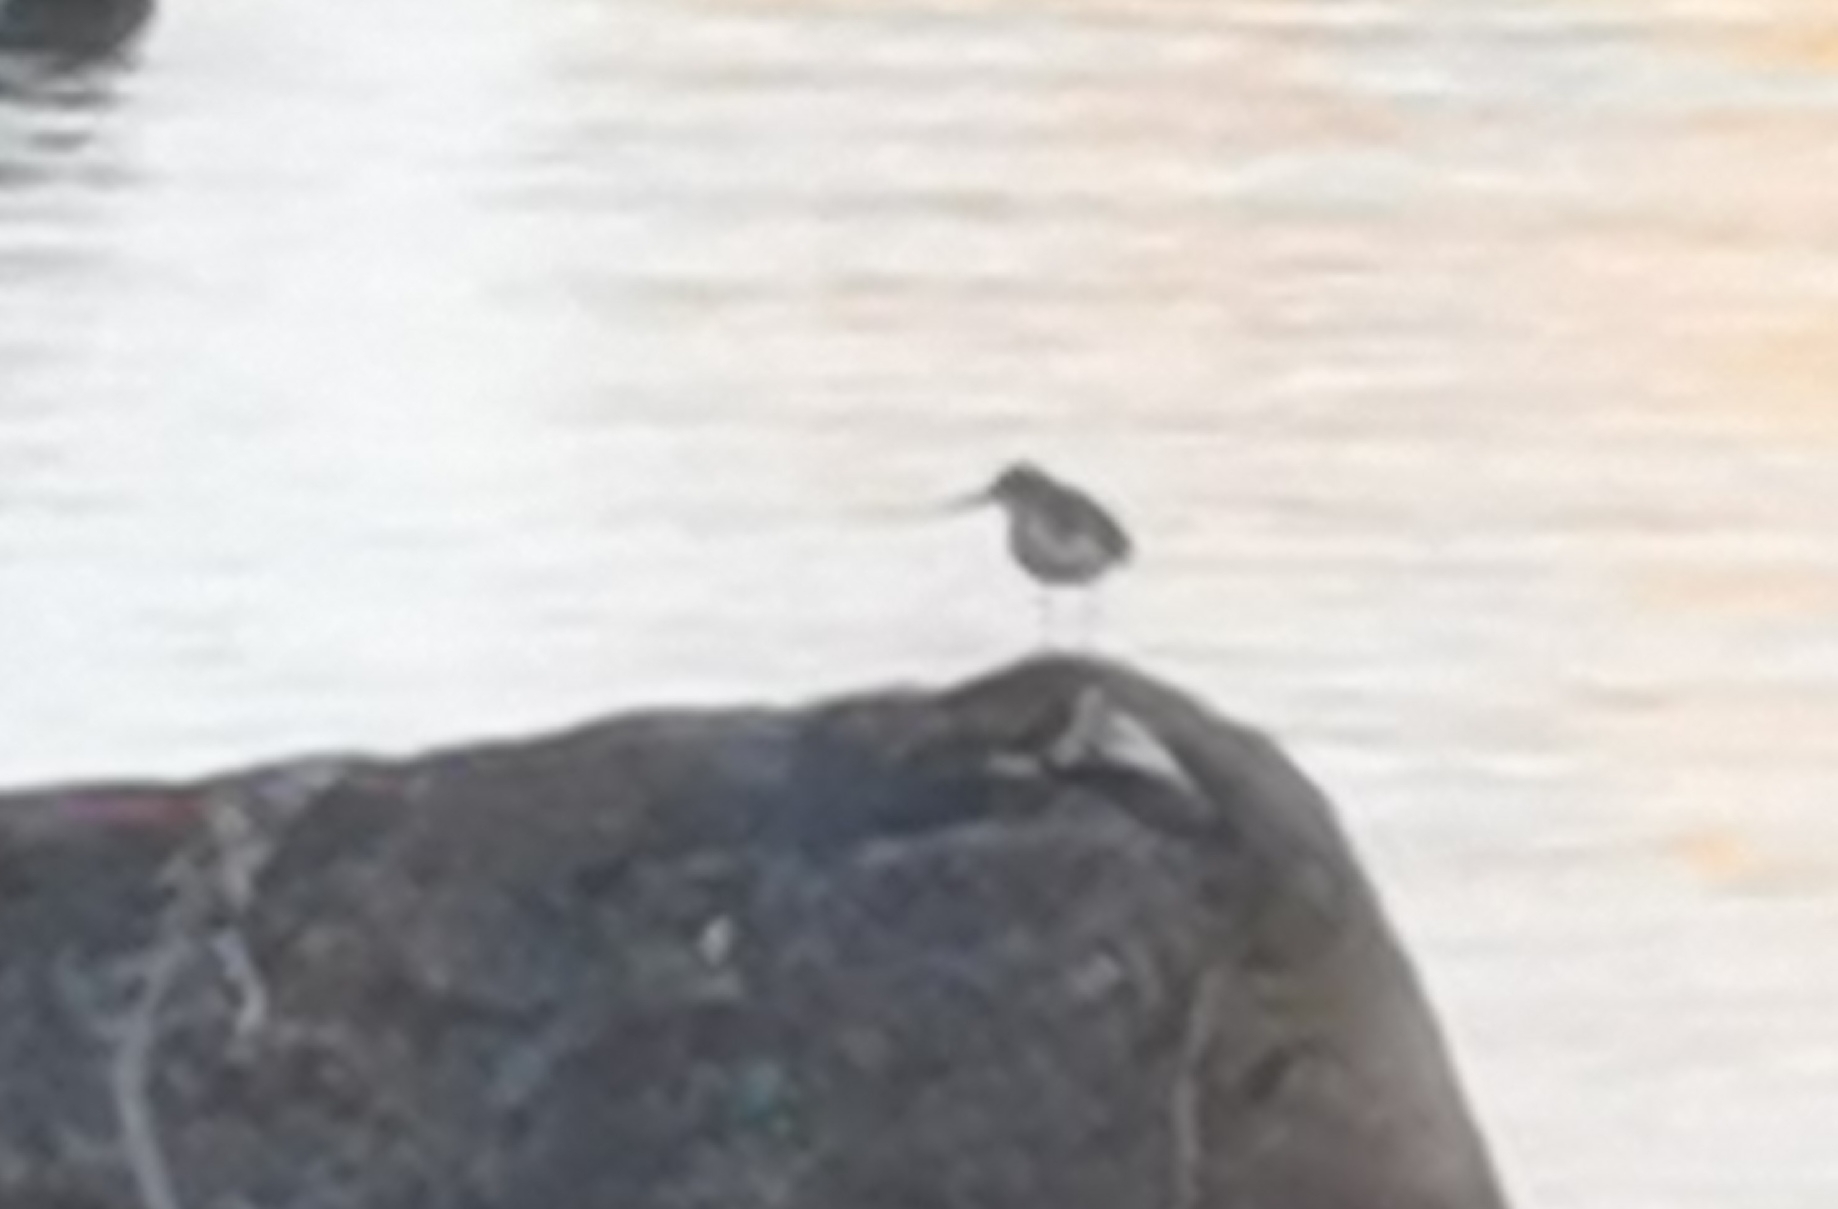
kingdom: Animalia
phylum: Chordata
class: Aves
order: Charadriiformes
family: Scolopacidae
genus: Actitis
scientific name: Actitis hypoleucos
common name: Common sandpiper
